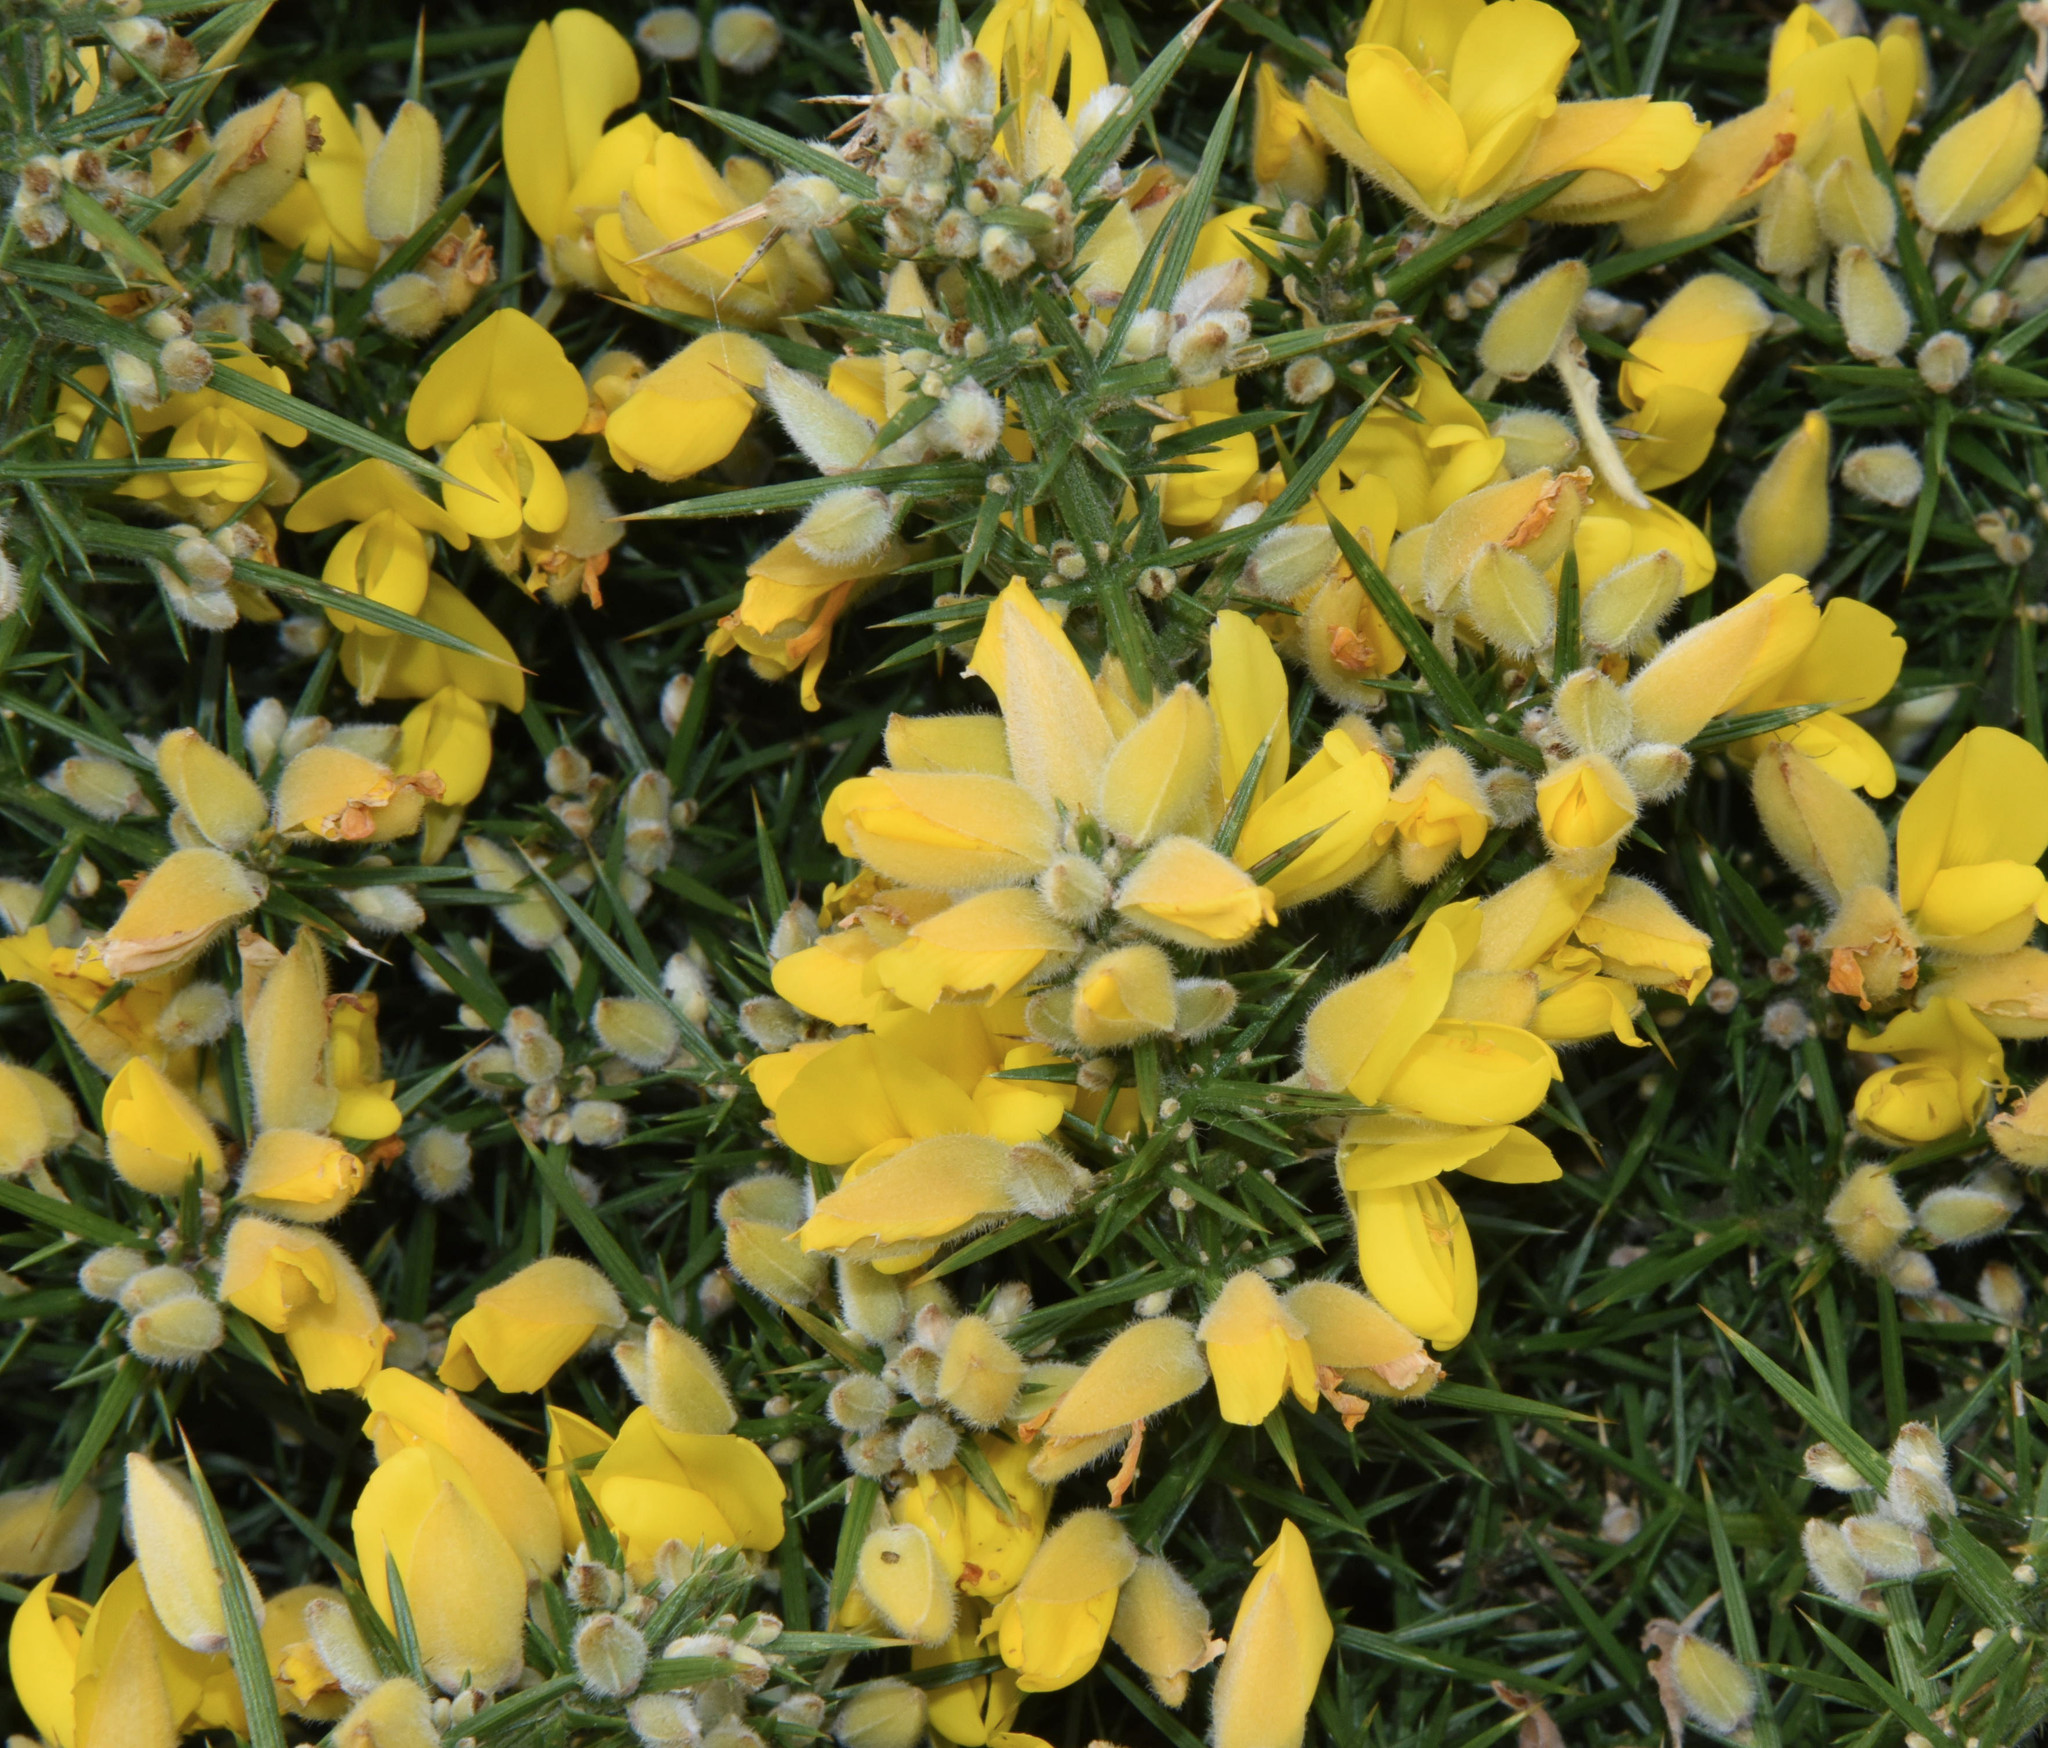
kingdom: Plantae
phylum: Tracheophyta
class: Magnoliopsida
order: Fabales
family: Fabaceae
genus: Ulex
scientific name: Ulex europaeus
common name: Common gorse
